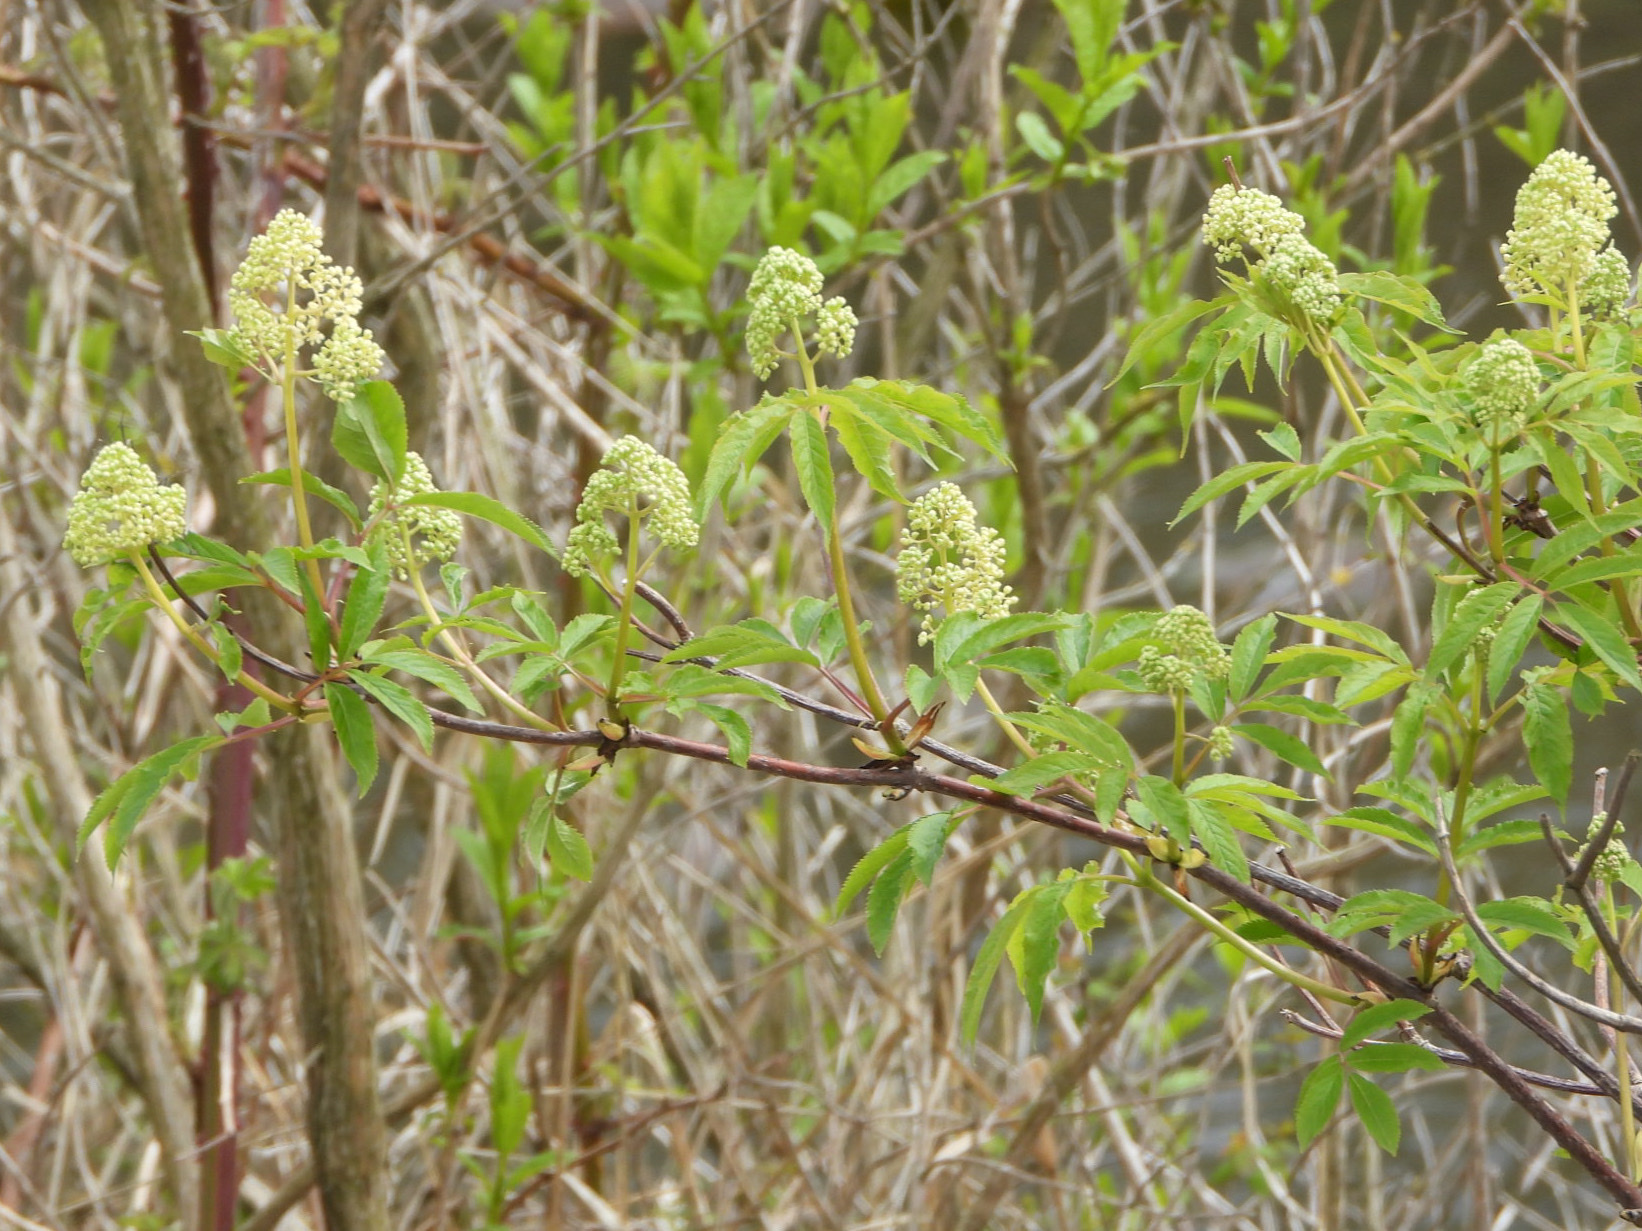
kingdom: Plantae
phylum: Tracheophyta
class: Magnoliopsida
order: Dipsacales
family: Viburnaceae
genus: Sambucus
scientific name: Sambucus racemosa
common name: Red-berried elder
